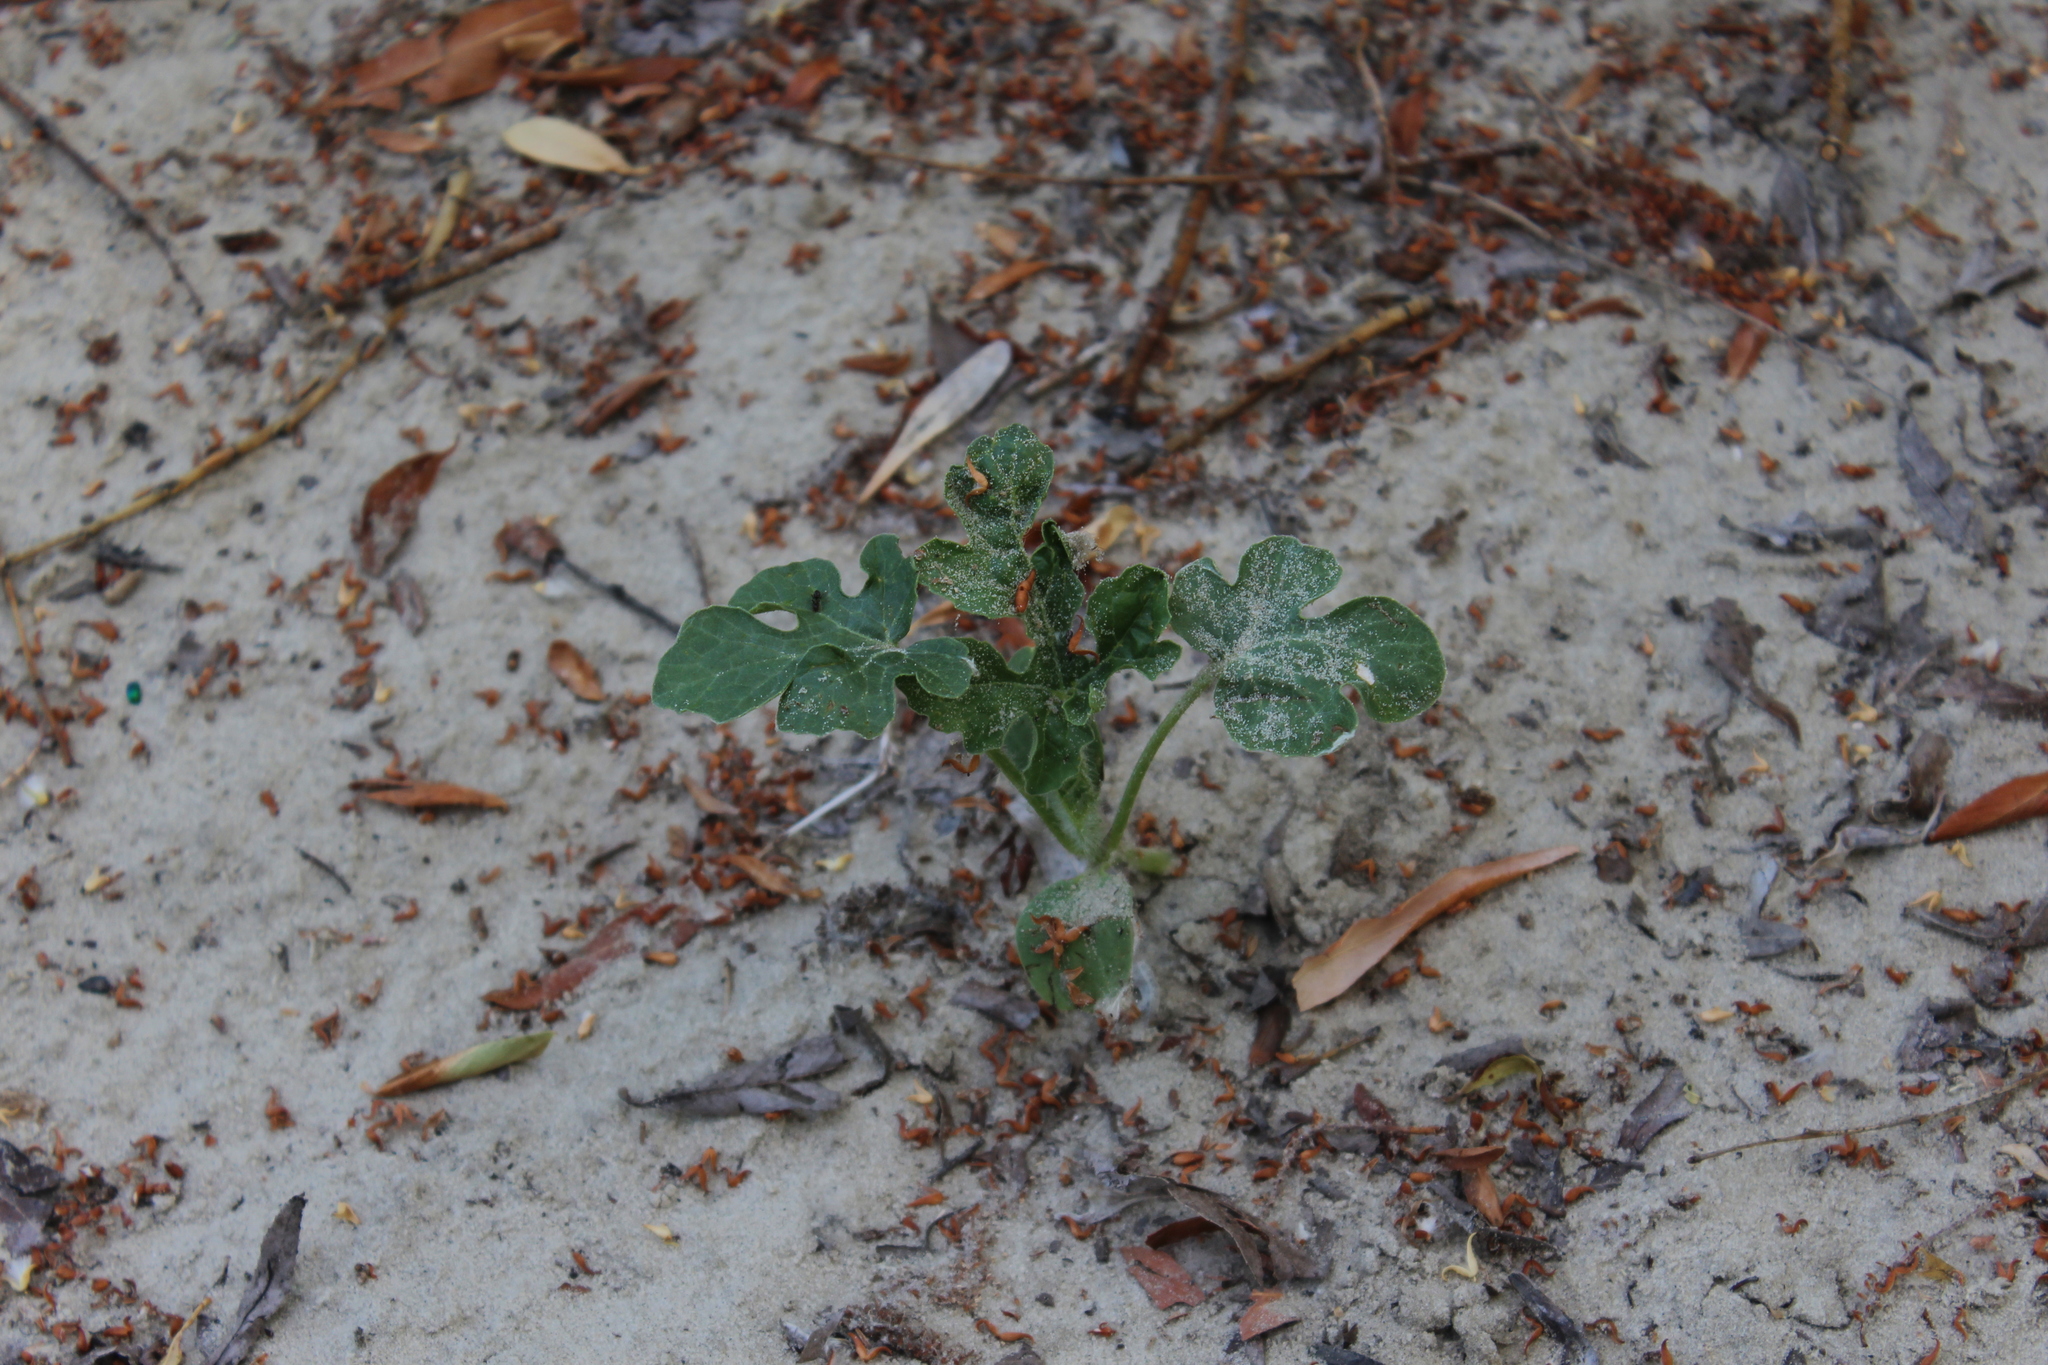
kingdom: Plantae
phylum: Tracheophyta
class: Magnoliopsida
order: Cucurbitales
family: Cucurbitaceae
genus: Citrullus
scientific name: Citrullus lanatus
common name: Watermelon
